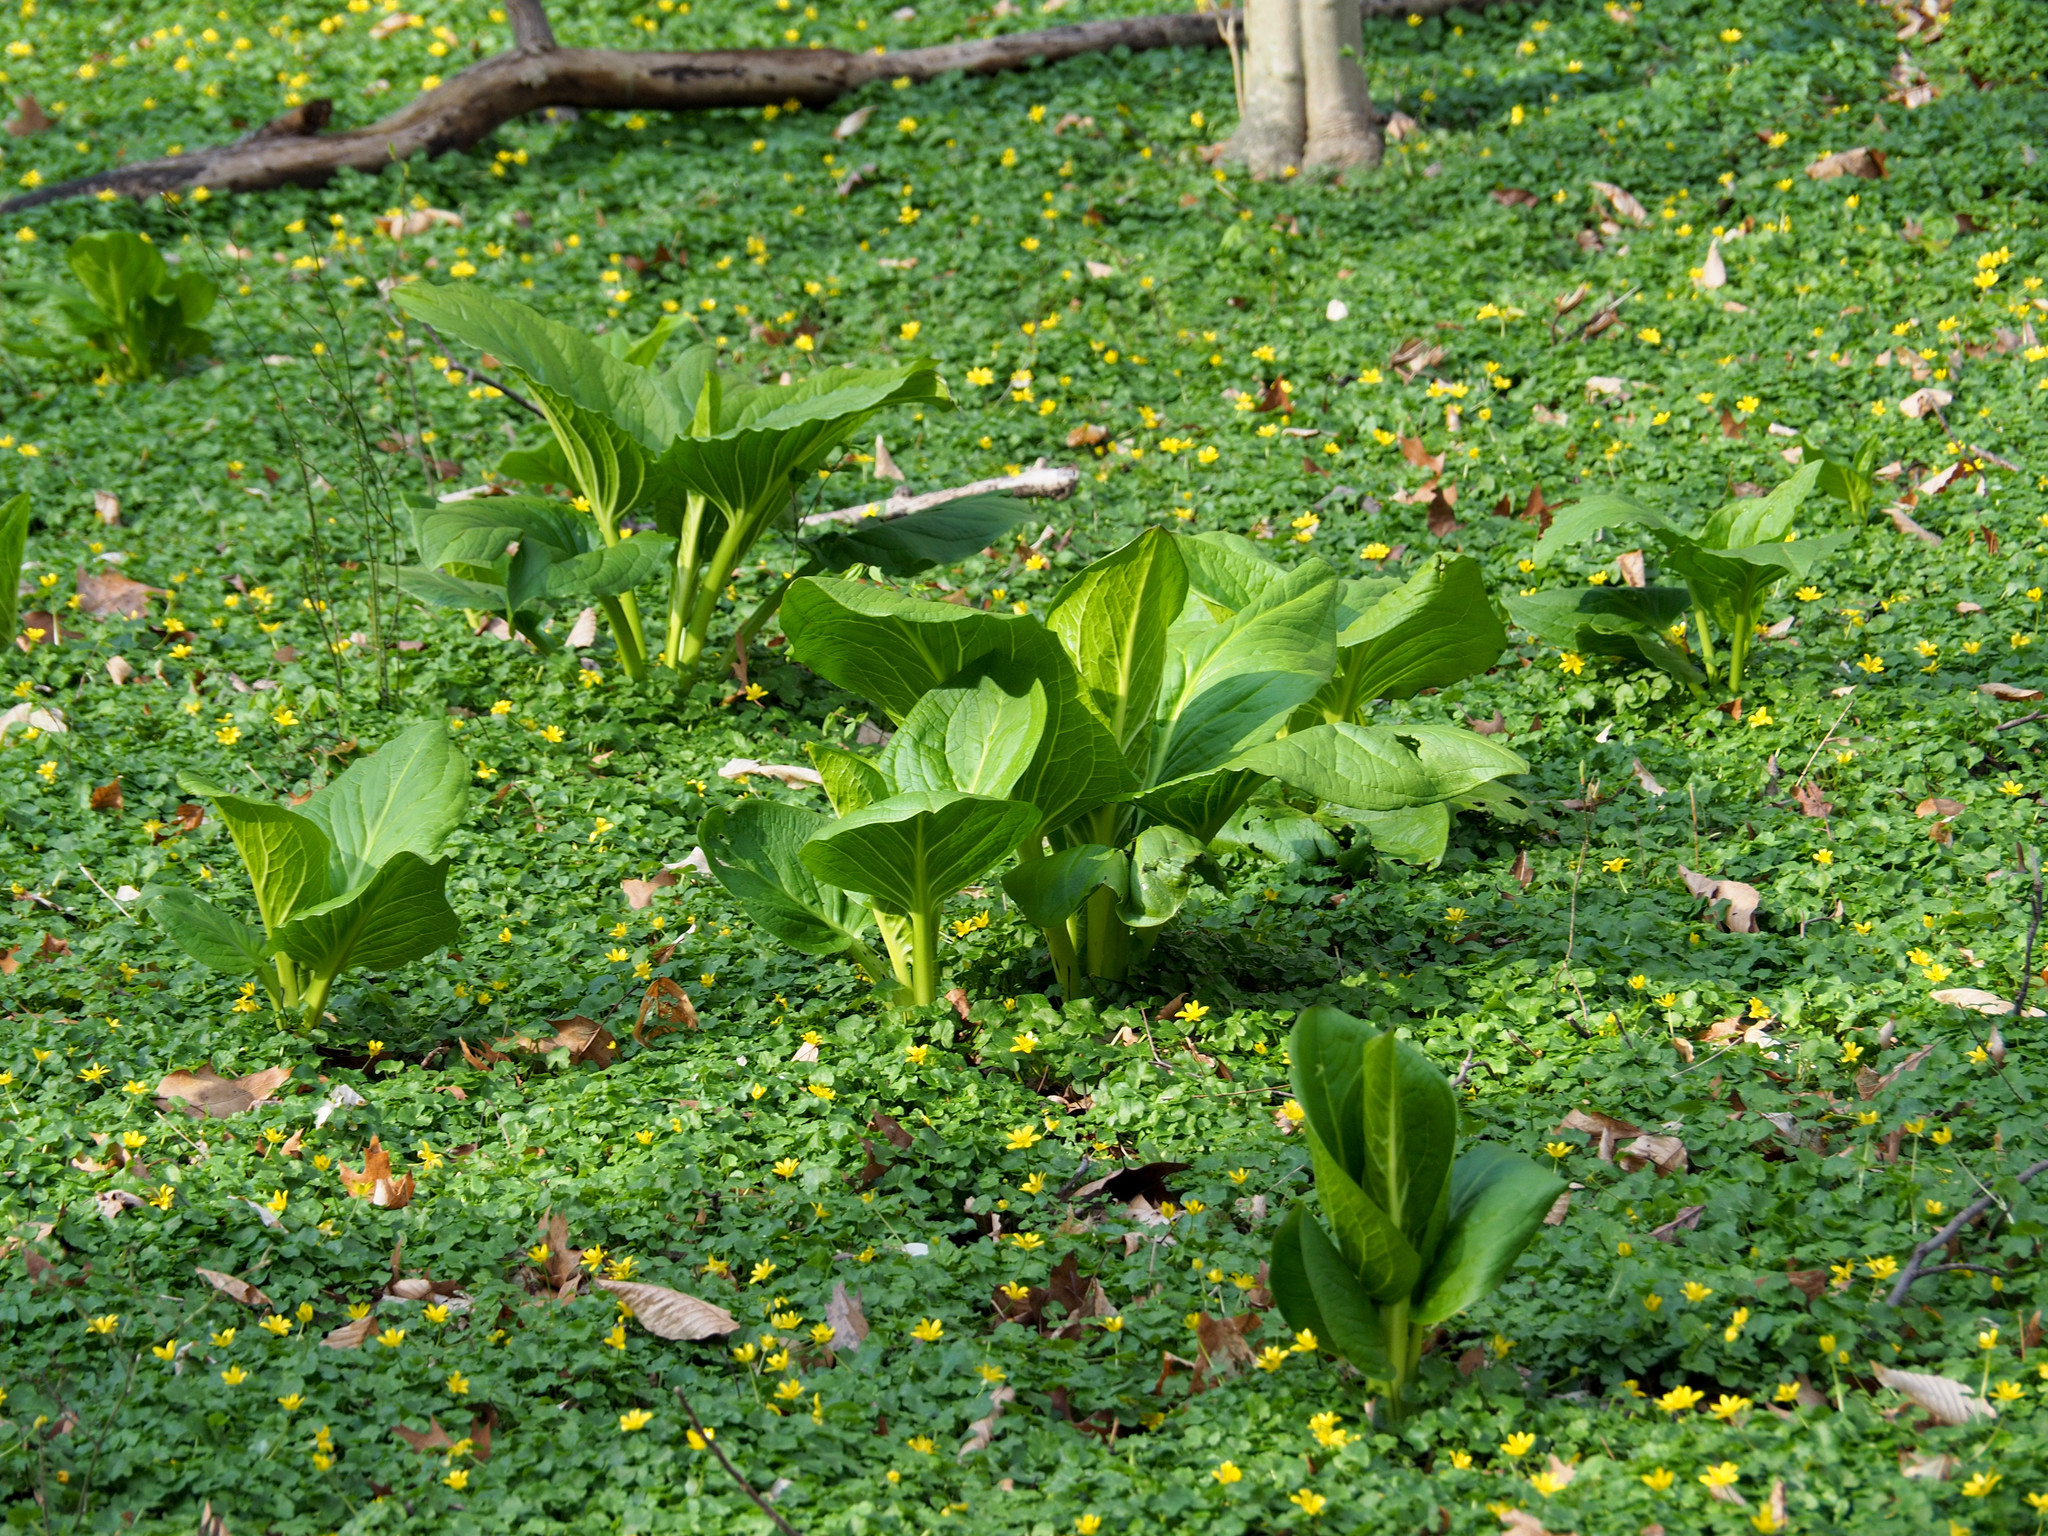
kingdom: Plantae
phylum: Tracheophyta
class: Liliopsida
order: Alismatales
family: Araceae
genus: Symplocarpus
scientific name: Symplocarpus foetidus
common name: Eastern skunk cabbage
